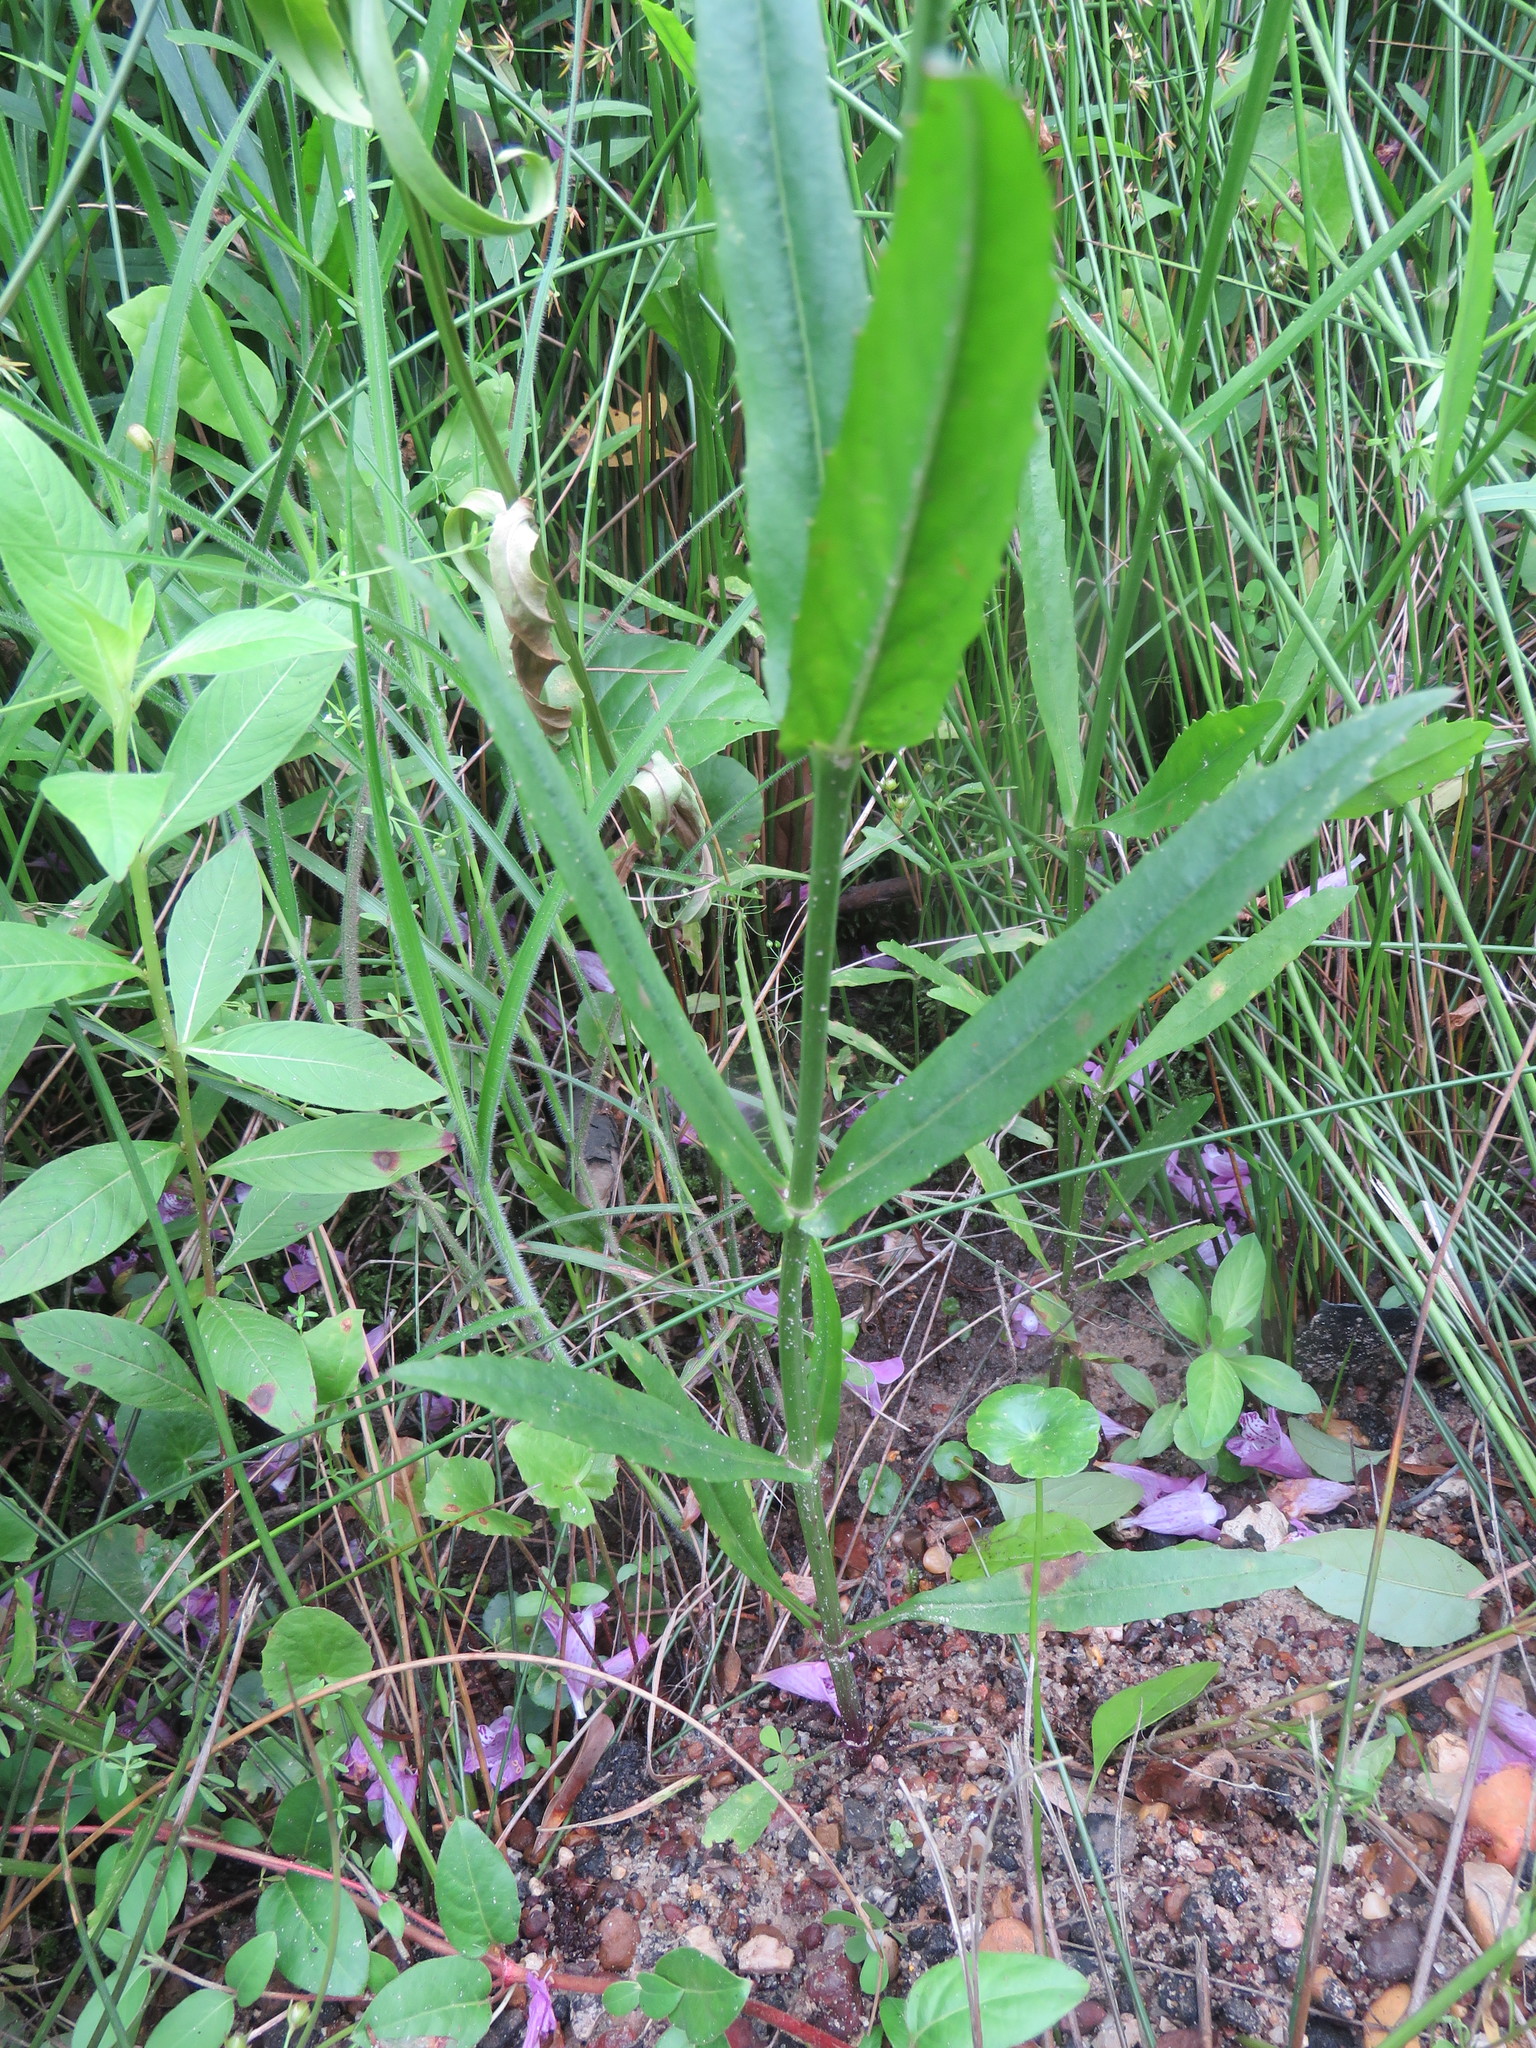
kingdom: Plantae
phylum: Tracheophyta
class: Magnoliopsida
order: Lamiales
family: Lamiaceae
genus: Physostegia
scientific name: Physostegia virginiana
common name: Obedient-plant
